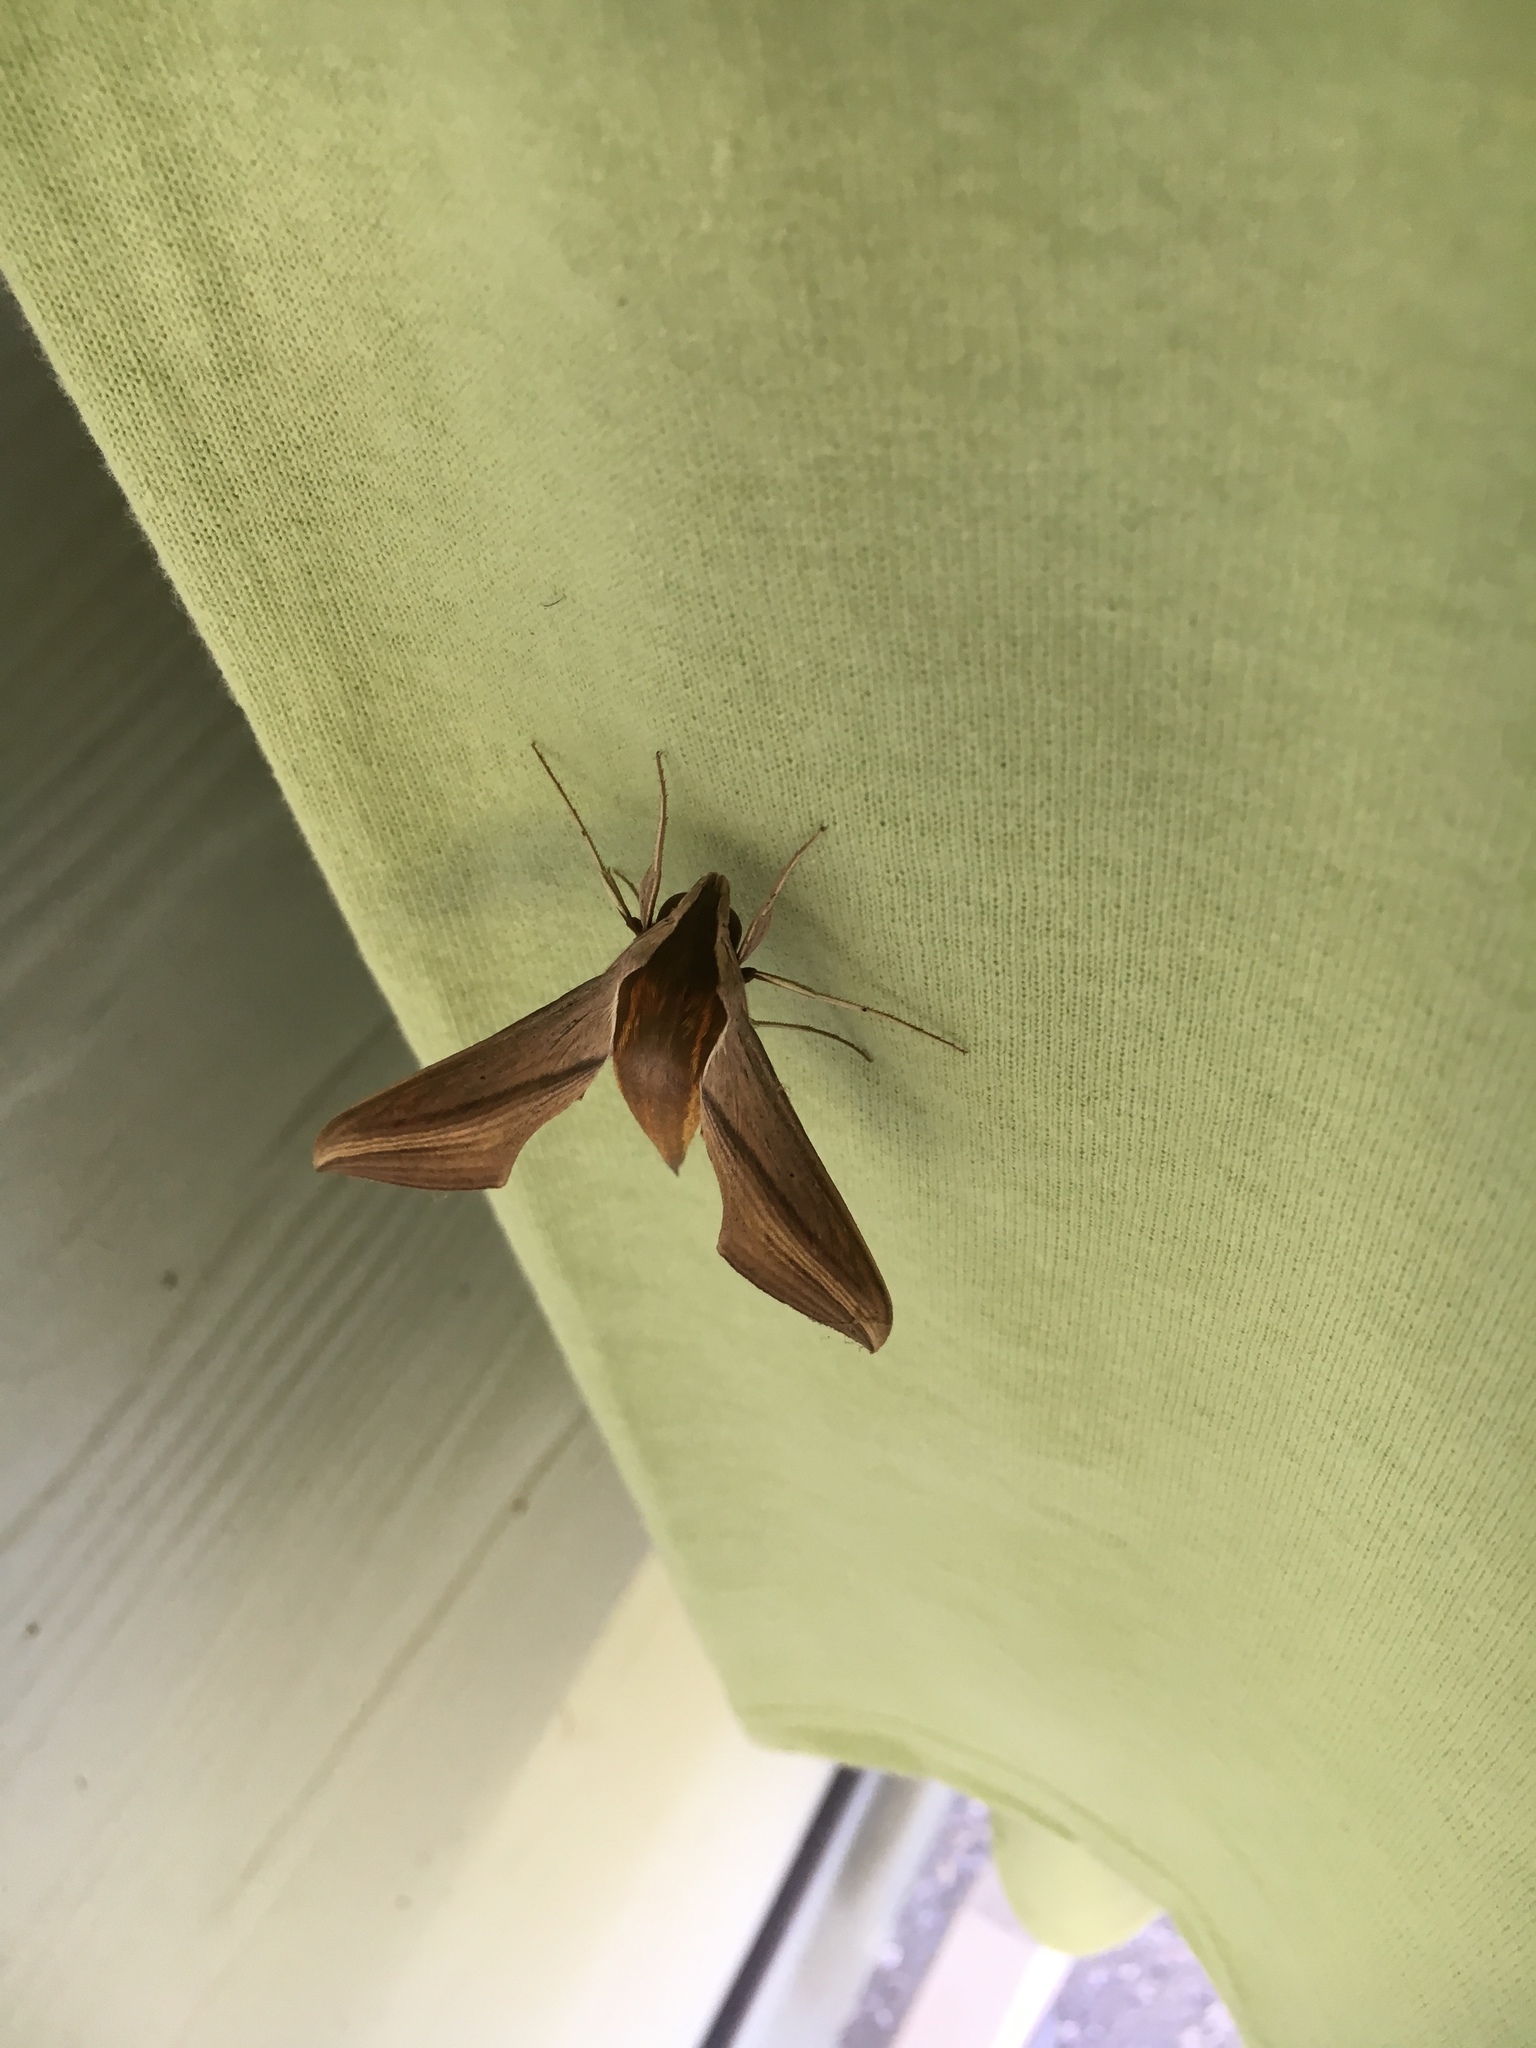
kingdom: Animalia
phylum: Arthropoda
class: Insecta
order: Lepidoptera
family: Sphingidae
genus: Xylophanes
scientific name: Xylophanes tersa
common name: Tersa sphinx
